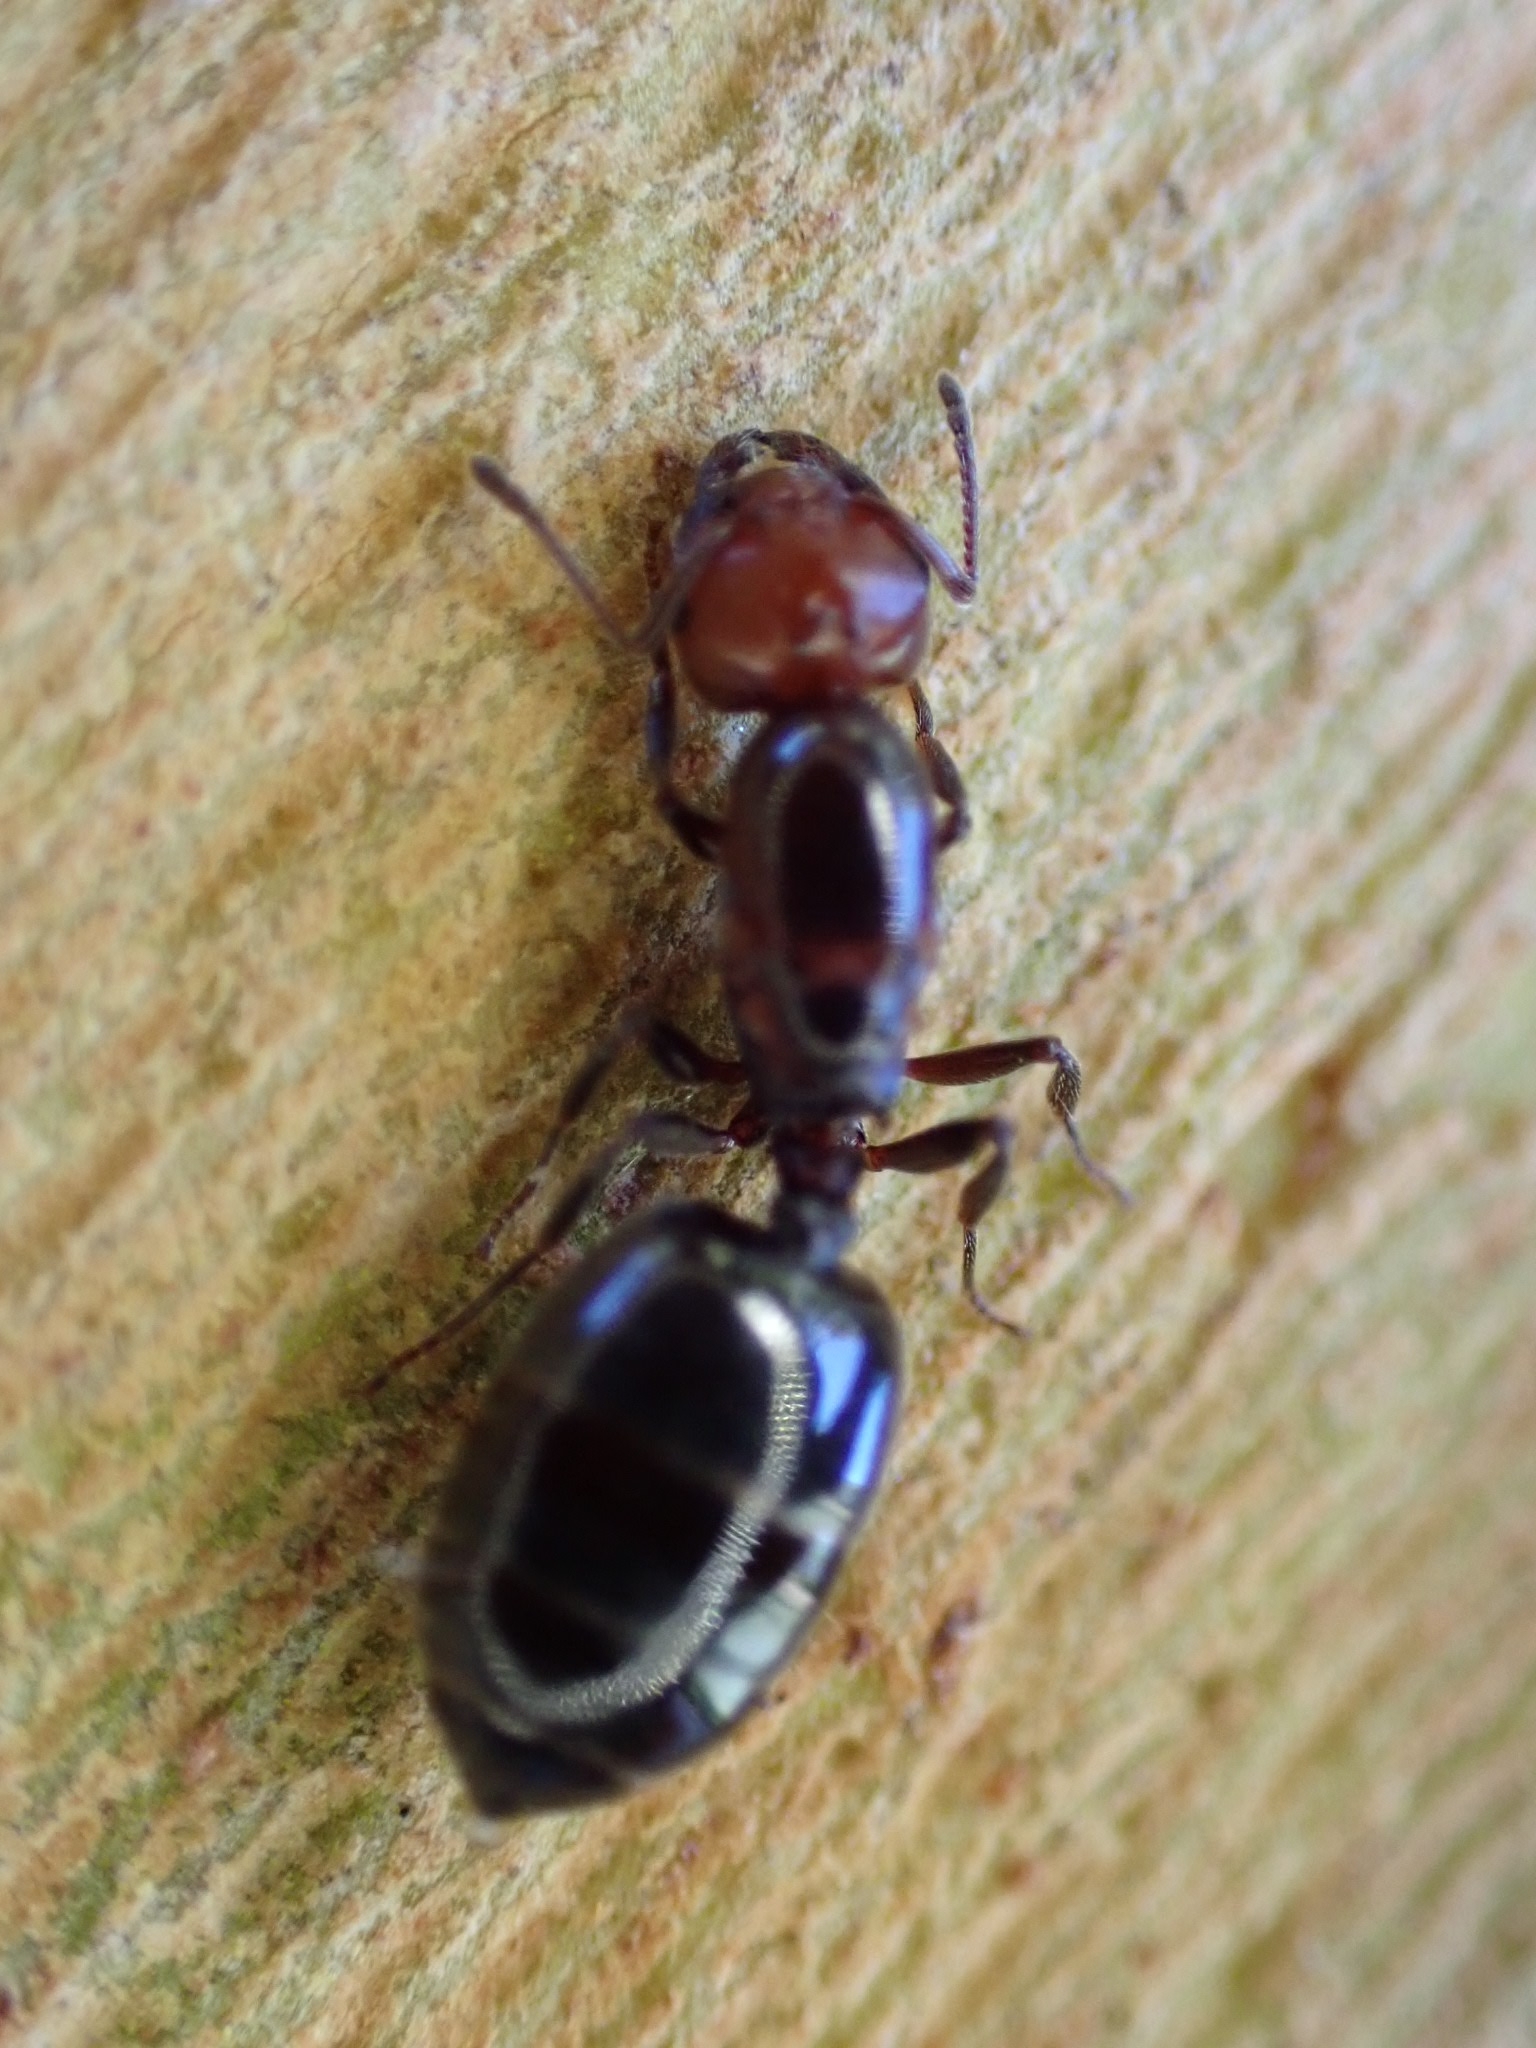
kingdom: Animalia
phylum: Arthropoda
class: Insecta
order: Hymenoptera
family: Formicidae
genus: Crematogaster
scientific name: Crematogaster scutellaris
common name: Fourmi du liège
